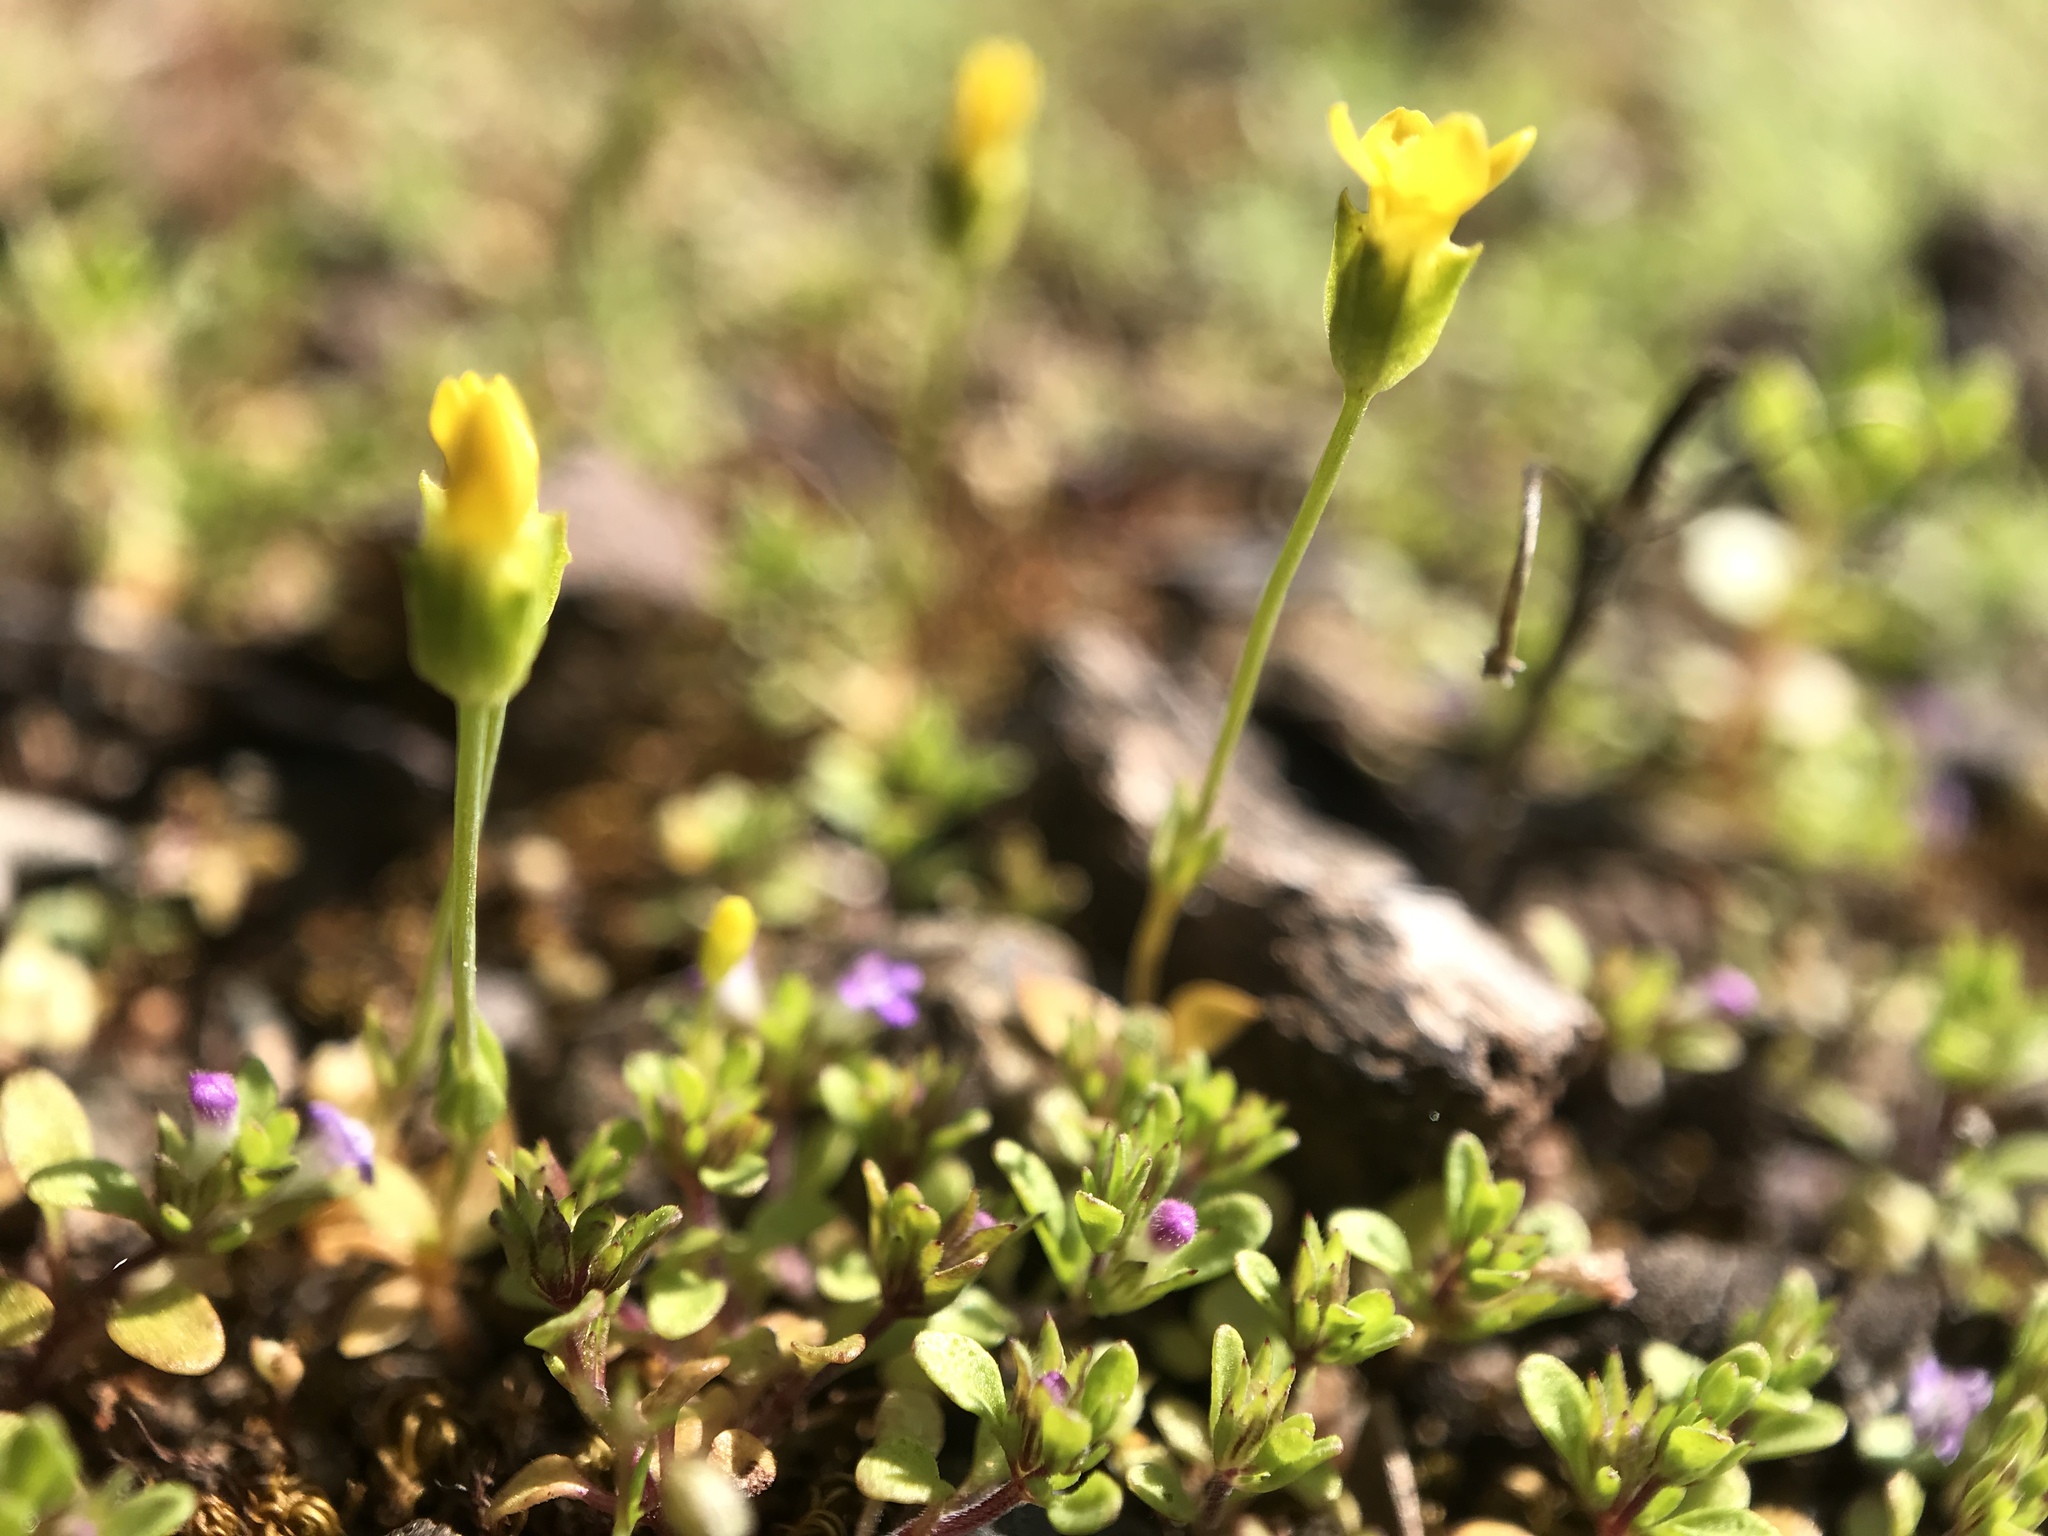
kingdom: Plantae
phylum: Tracheophyta
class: Magnoliopsida
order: Gentianales
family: Gentianaceae
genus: Microcala
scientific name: Microcala quadrangularis
